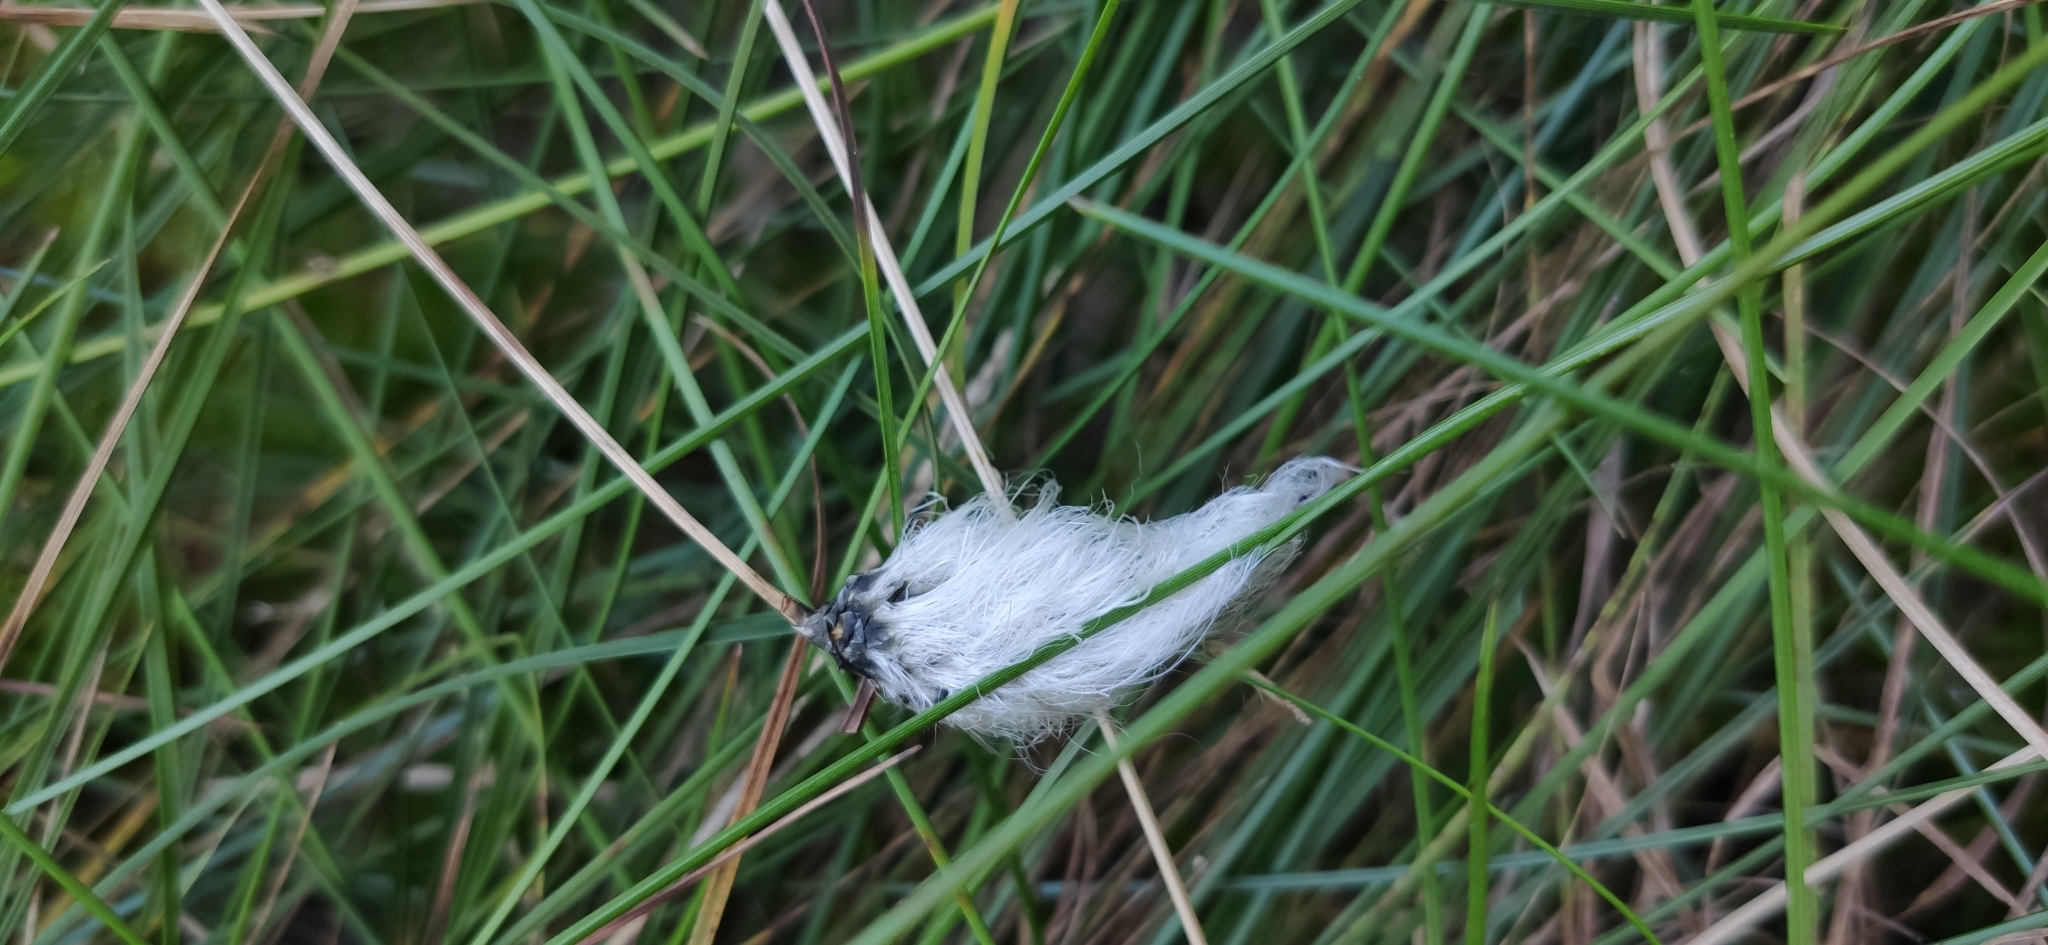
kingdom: Plantae
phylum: Tracheophyta
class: Liliopsida
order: Poales
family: Cyperaceae
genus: Eriophorum
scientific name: Eriophorum vaginatum
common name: Hare's-tail cottongrass
